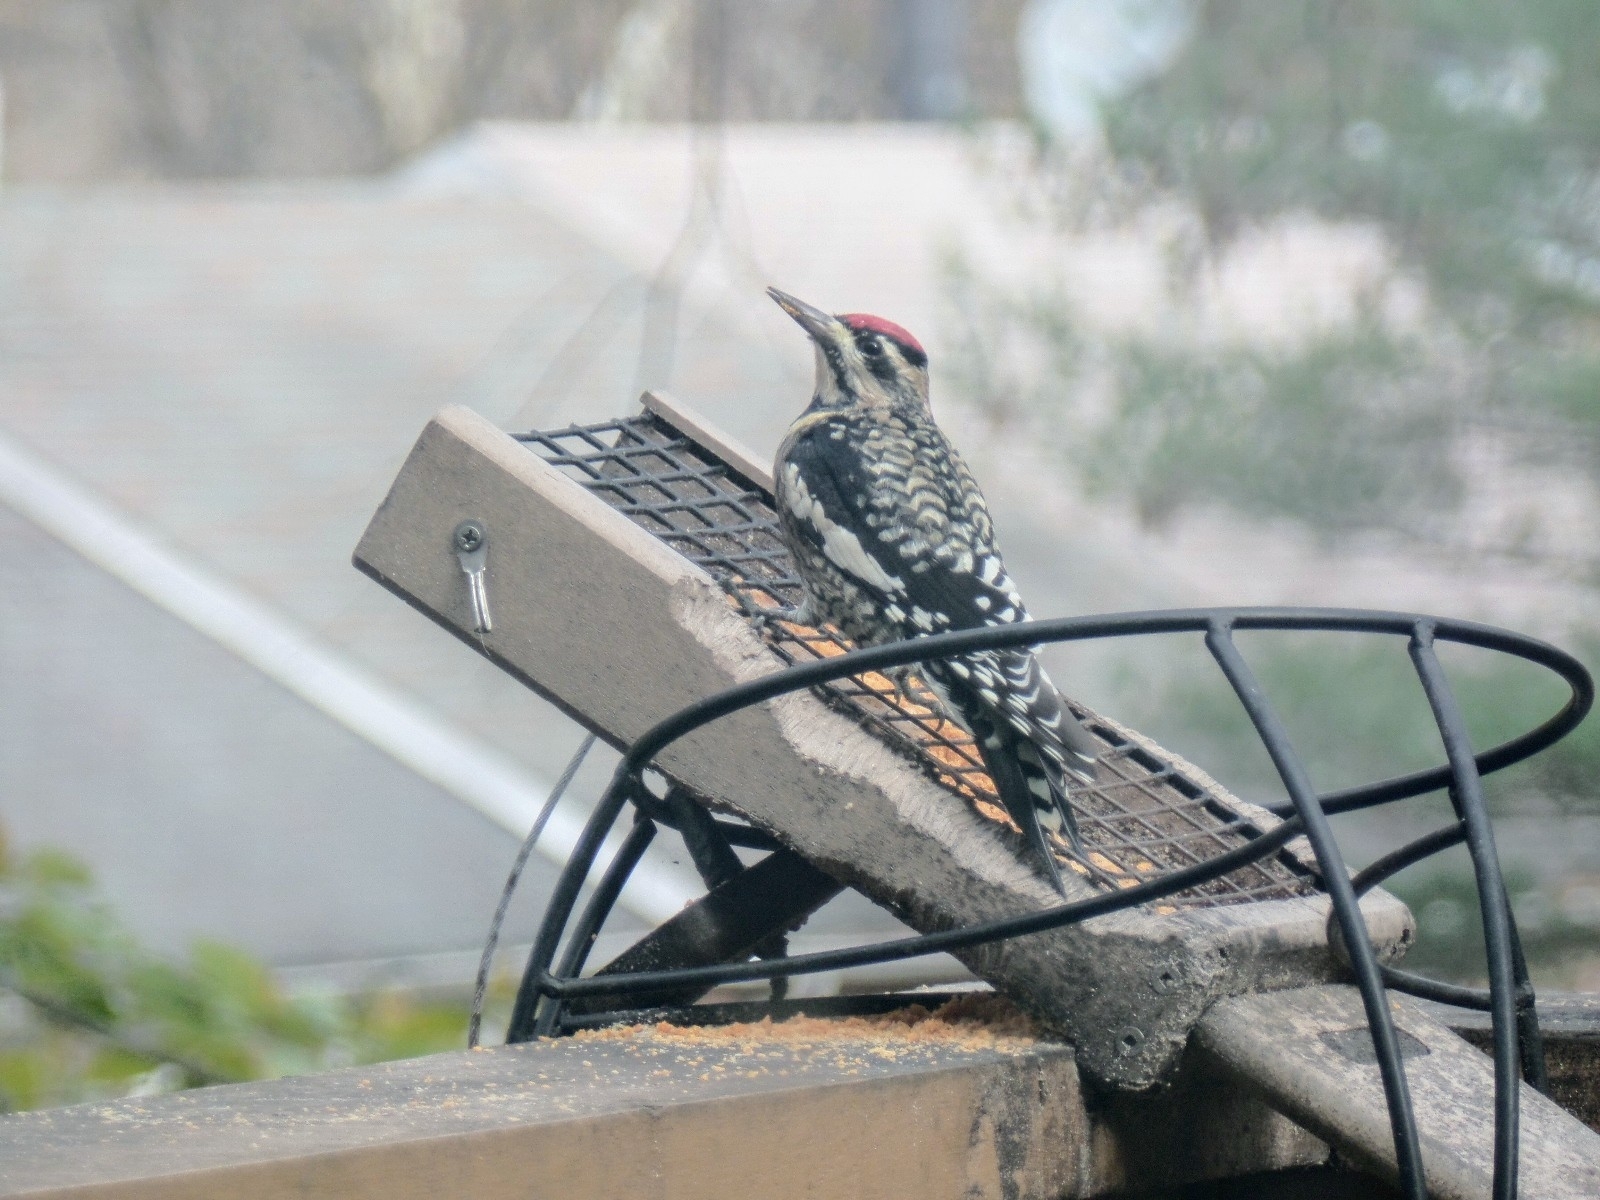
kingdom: Animalia
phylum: Chordata
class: Aves
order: Piciformes
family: Picidae
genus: Sphyrapicus
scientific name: Sphyrapicus varius
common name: Yellow-bellied sapsucker
